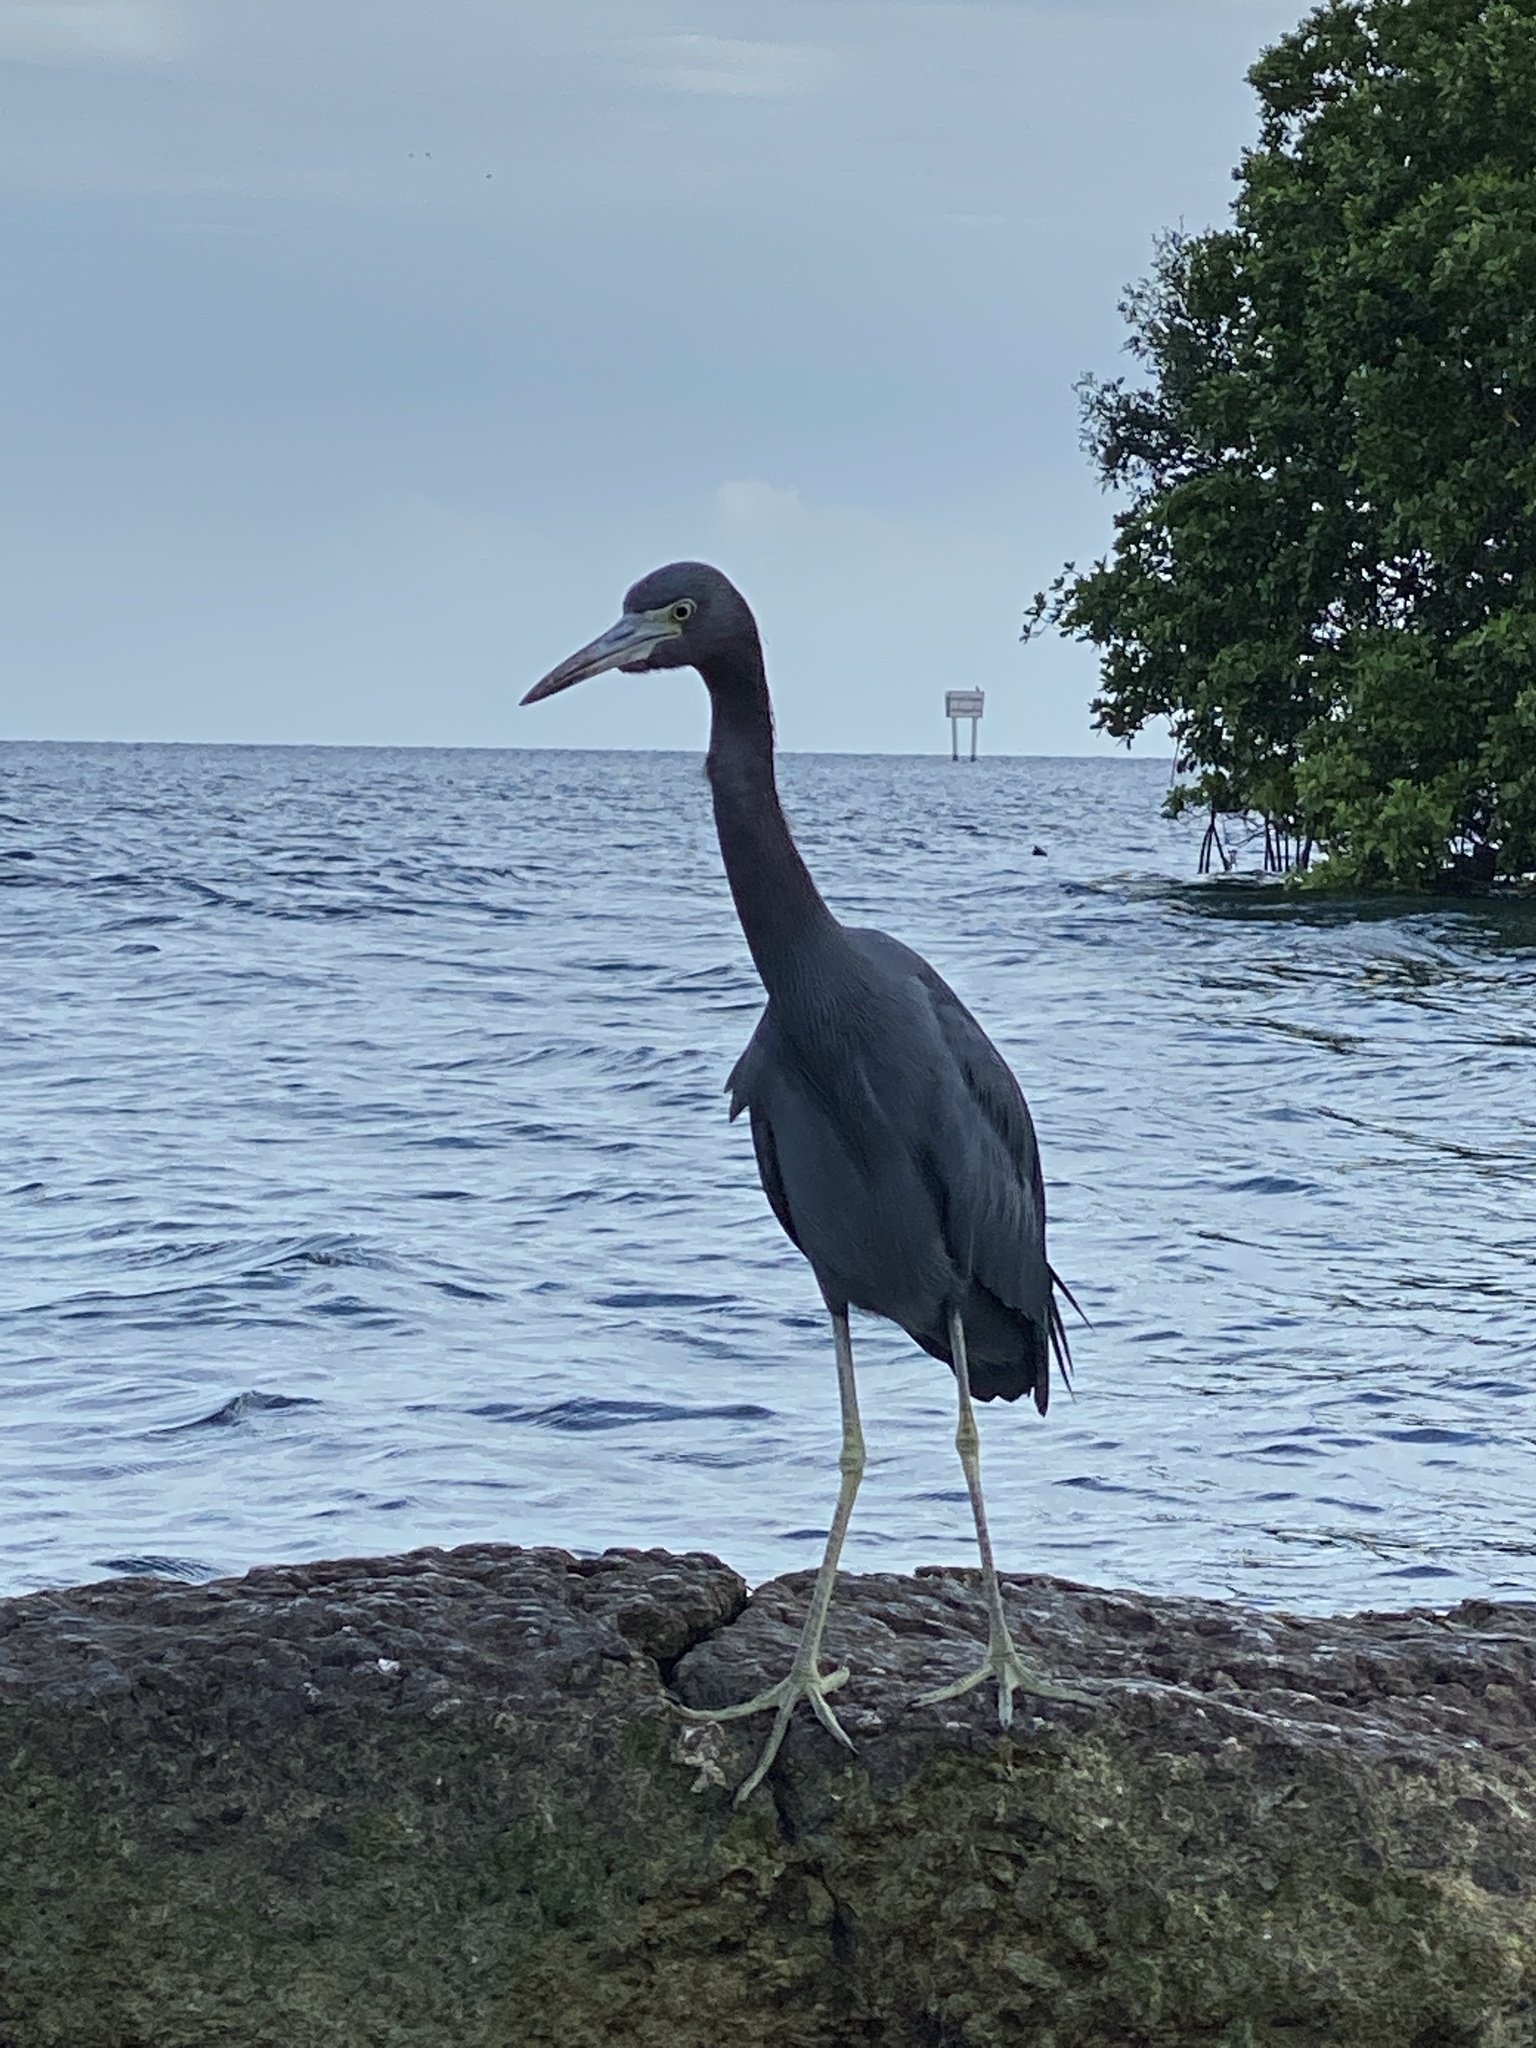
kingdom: Animalia
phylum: Chordata
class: Aves
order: Pelecaniformes
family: Ardeidae
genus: Egretta
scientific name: Egretta caerulea
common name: Little blue heron
